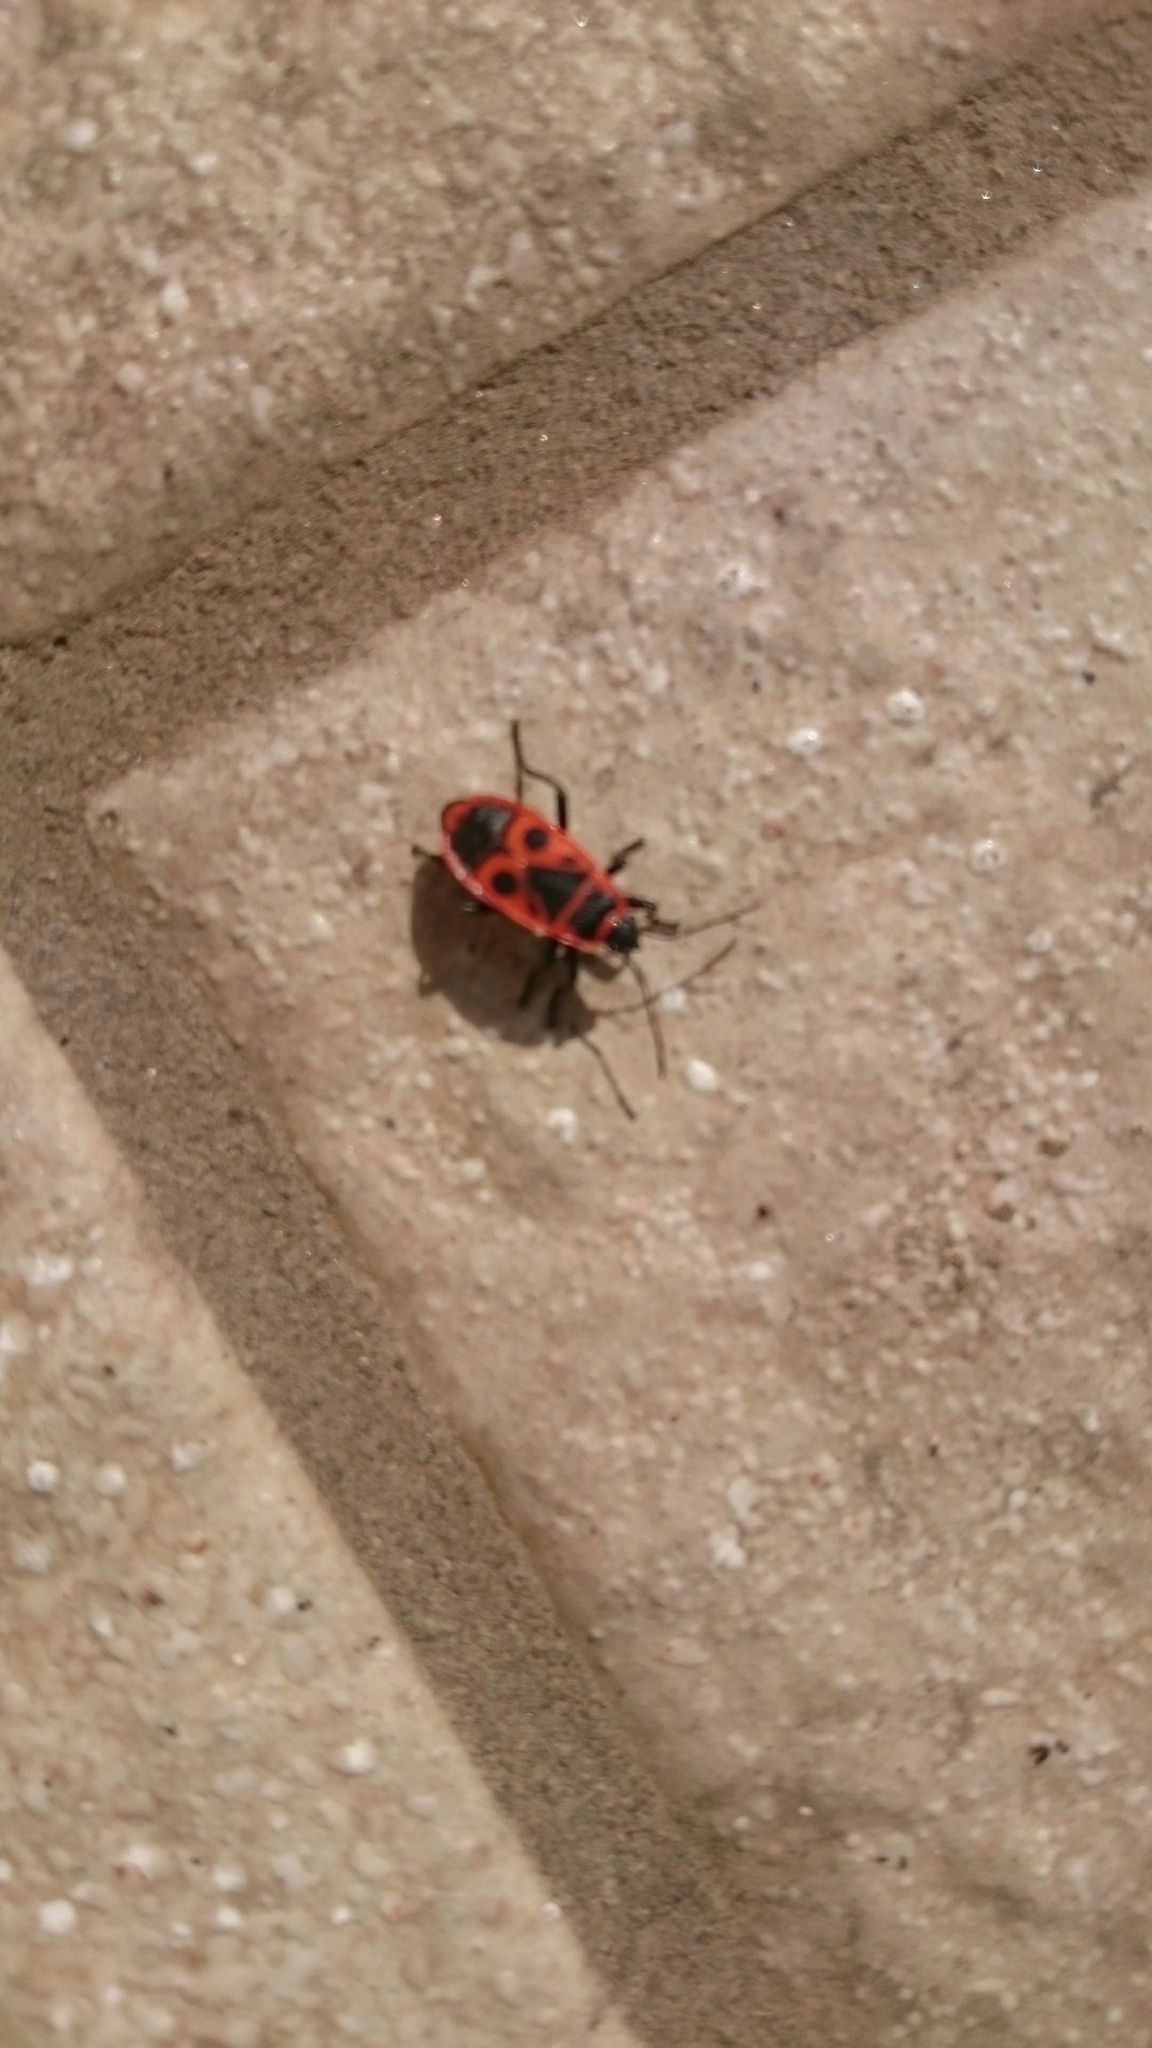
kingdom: Animalia
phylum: Arthropoda
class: Insecta
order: Hemiptera
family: Pyrrhocoridae
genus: Pyrrhocoris
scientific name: Pyrrhocoris apterus
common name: Firebug
